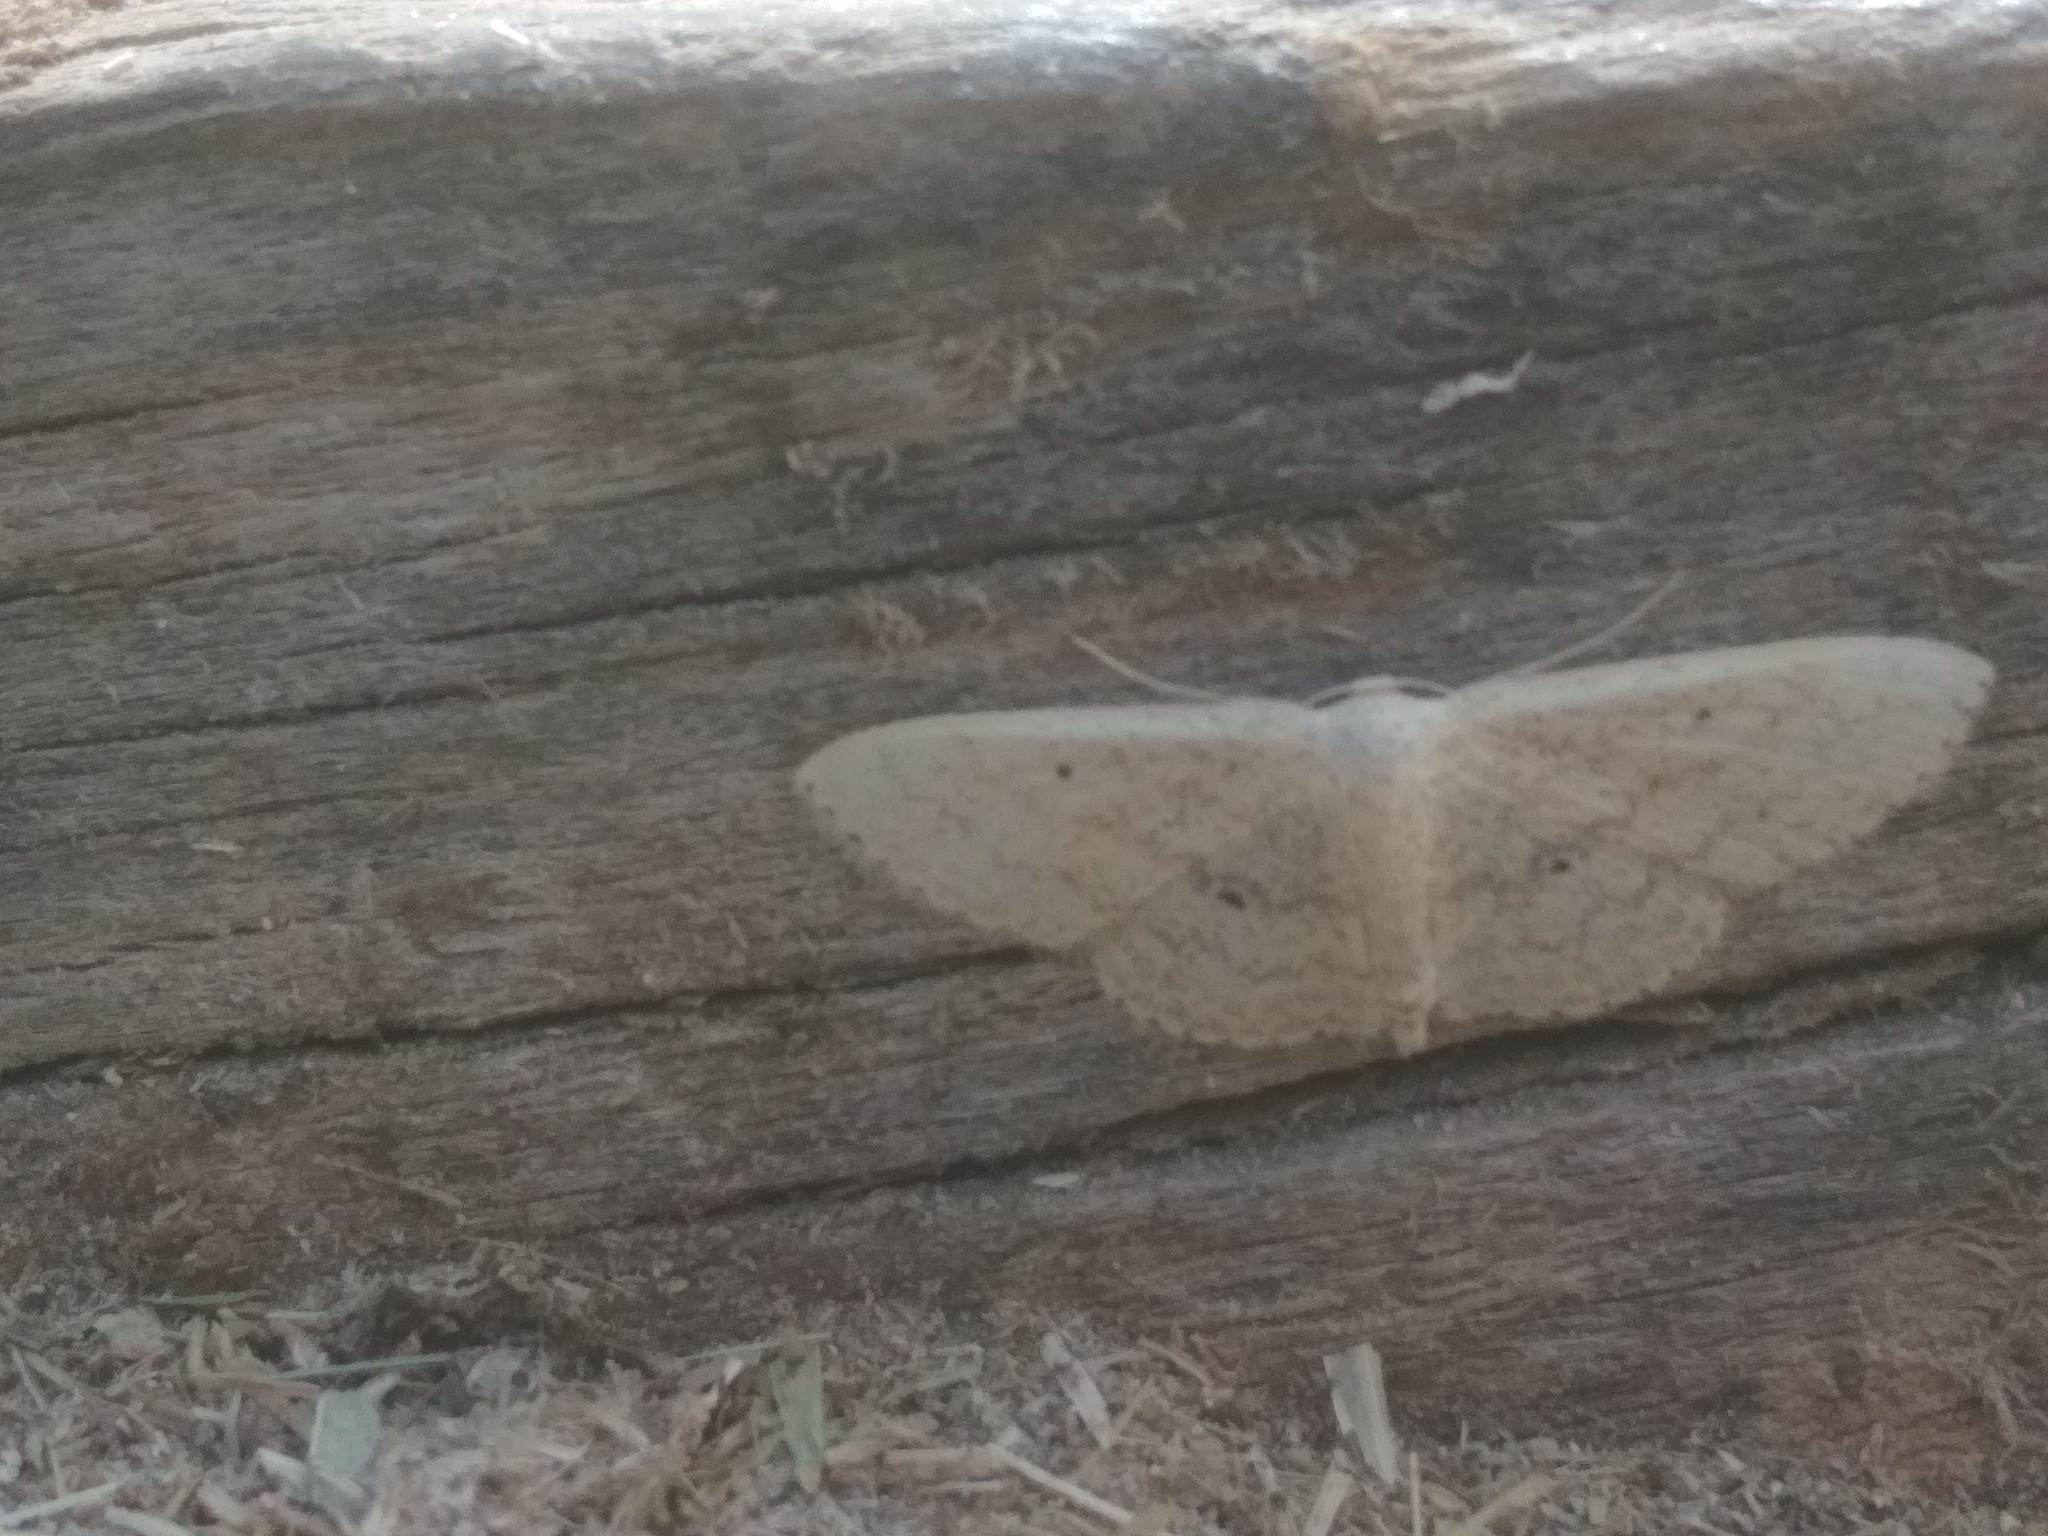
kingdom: Animalia
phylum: Arthropoda
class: Insecta
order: Lepidoptera
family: Geometridae
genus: Scopula
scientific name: Scopula minorata
